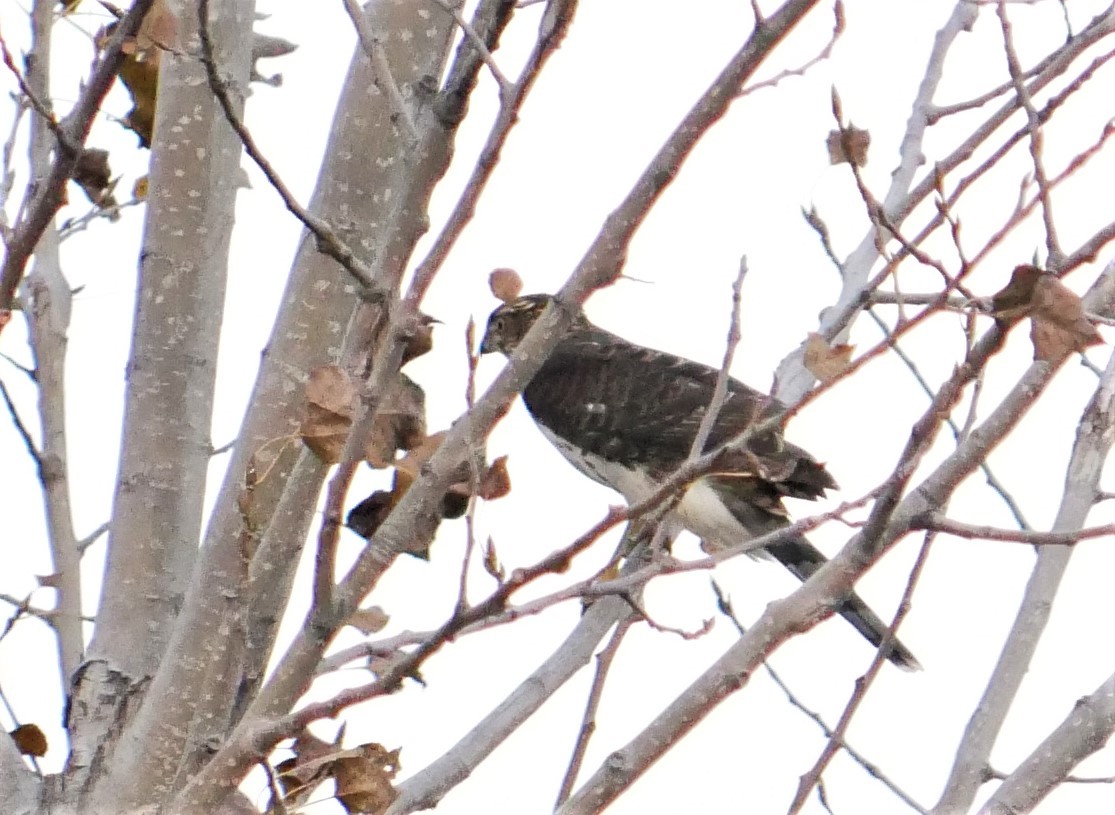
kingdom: Animalia
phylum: Chordata
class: Aves
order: Accipitriformes
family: Accipitridae
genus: Accipiter
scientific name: Accipiter cooperii
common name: Cooper's hawk
